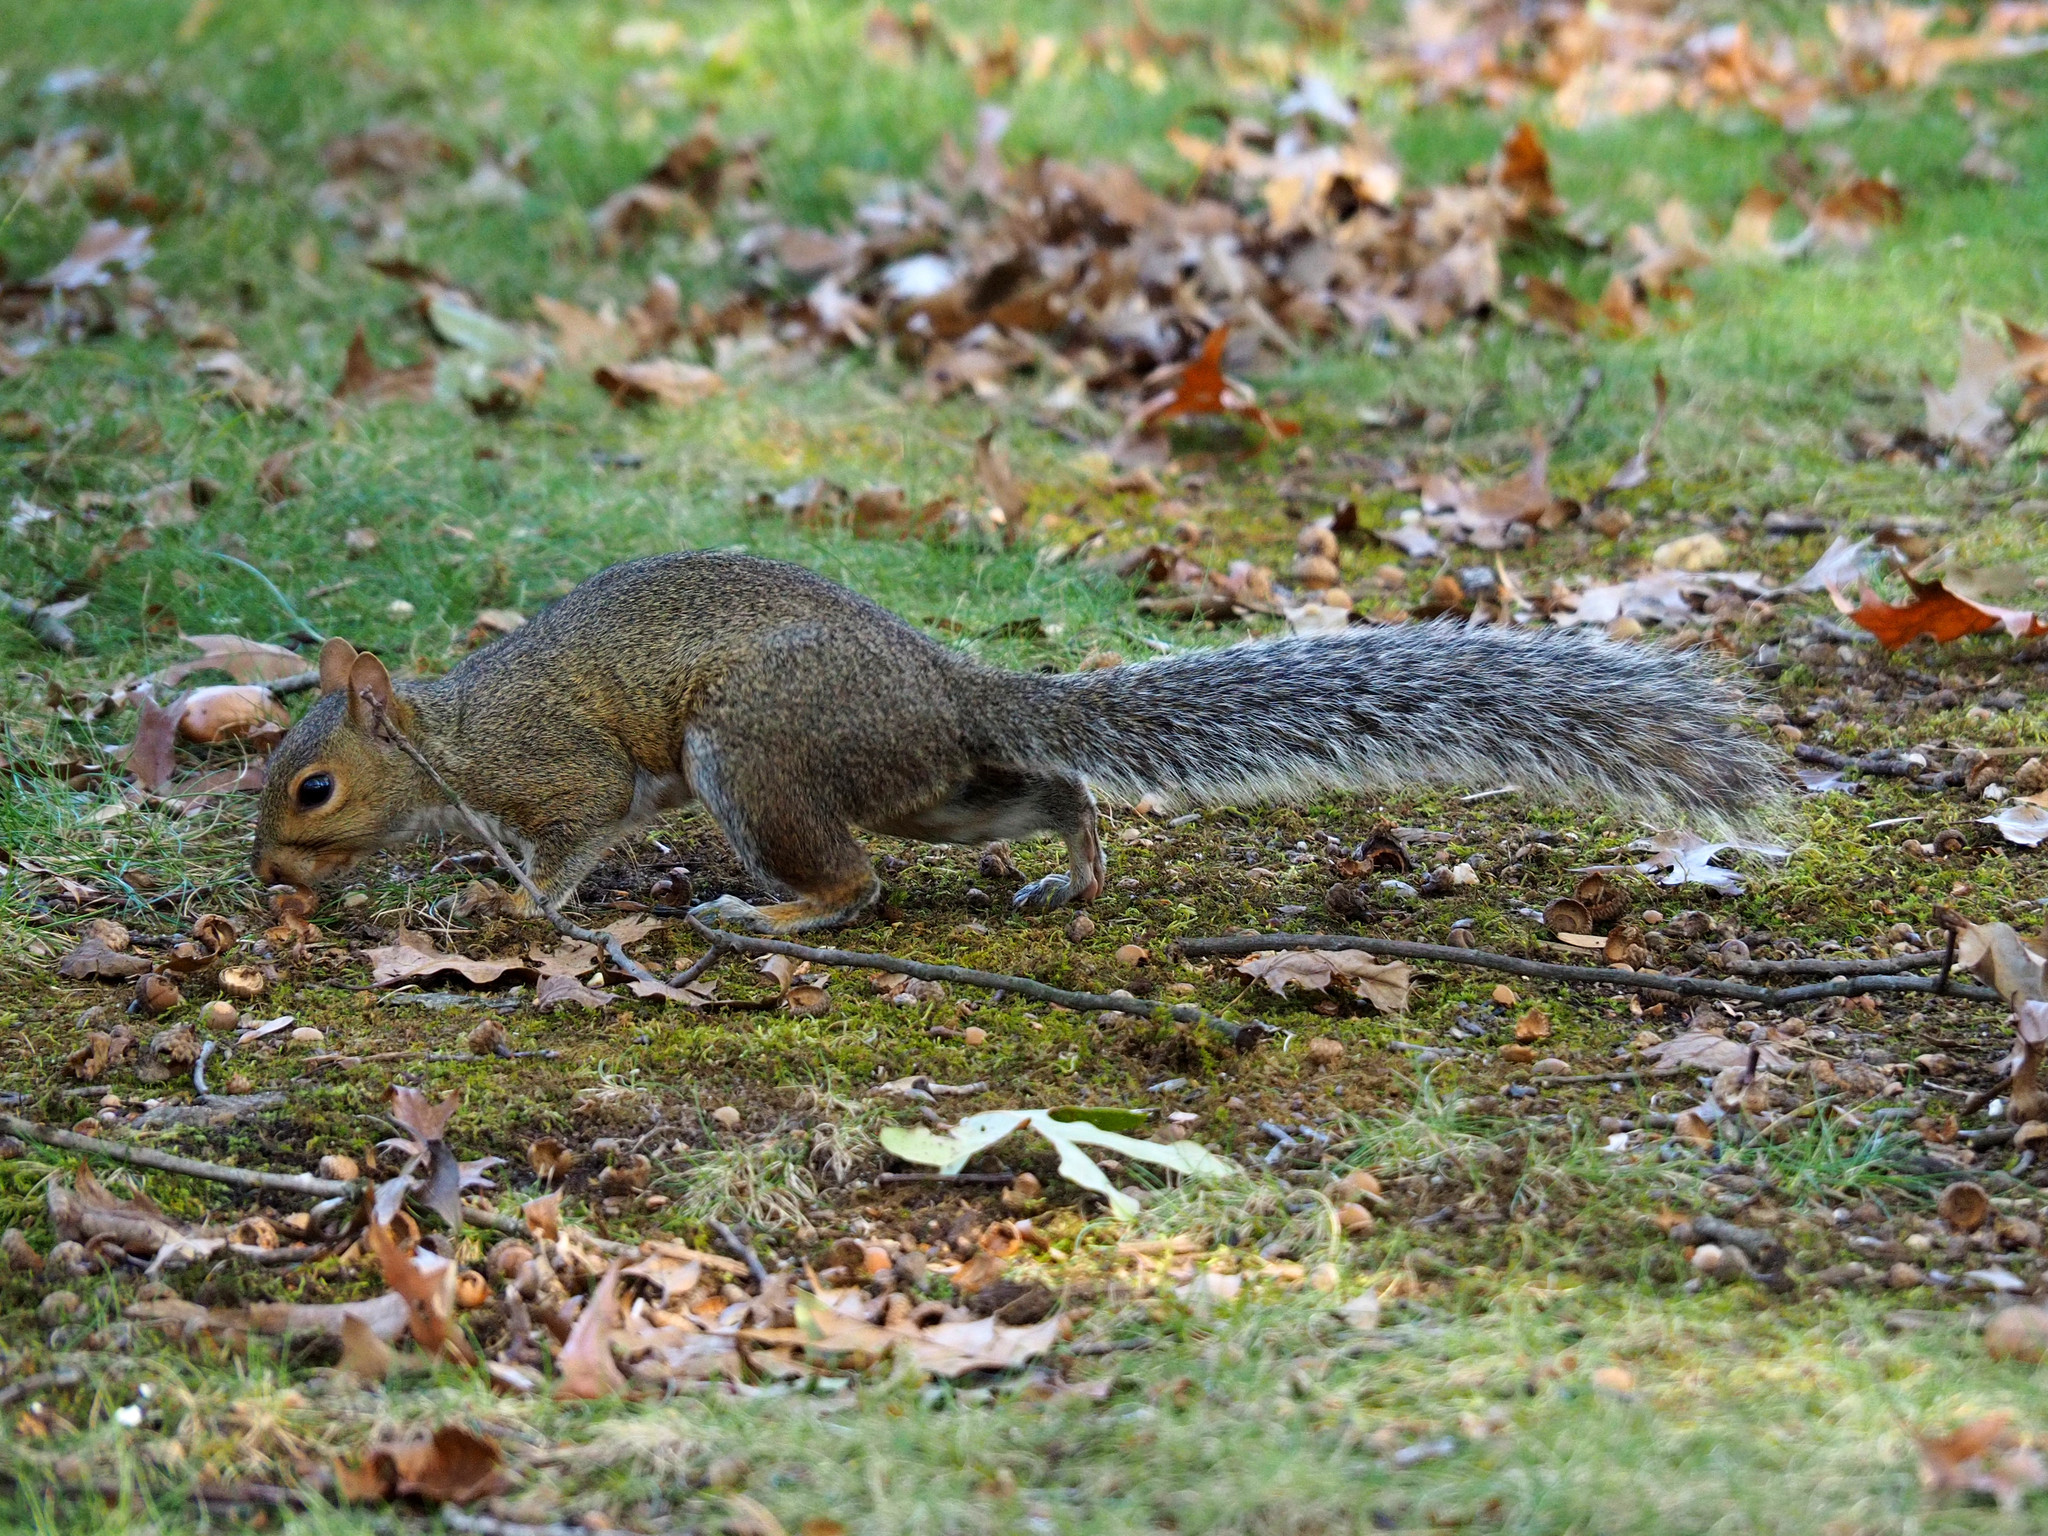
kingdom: Animalia
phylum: Chordata
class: Mammalia
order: Rodentia
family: Sciuridae
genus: Sciurus
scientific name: Sciurus carolinensis
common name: Eastern gray squirrel
